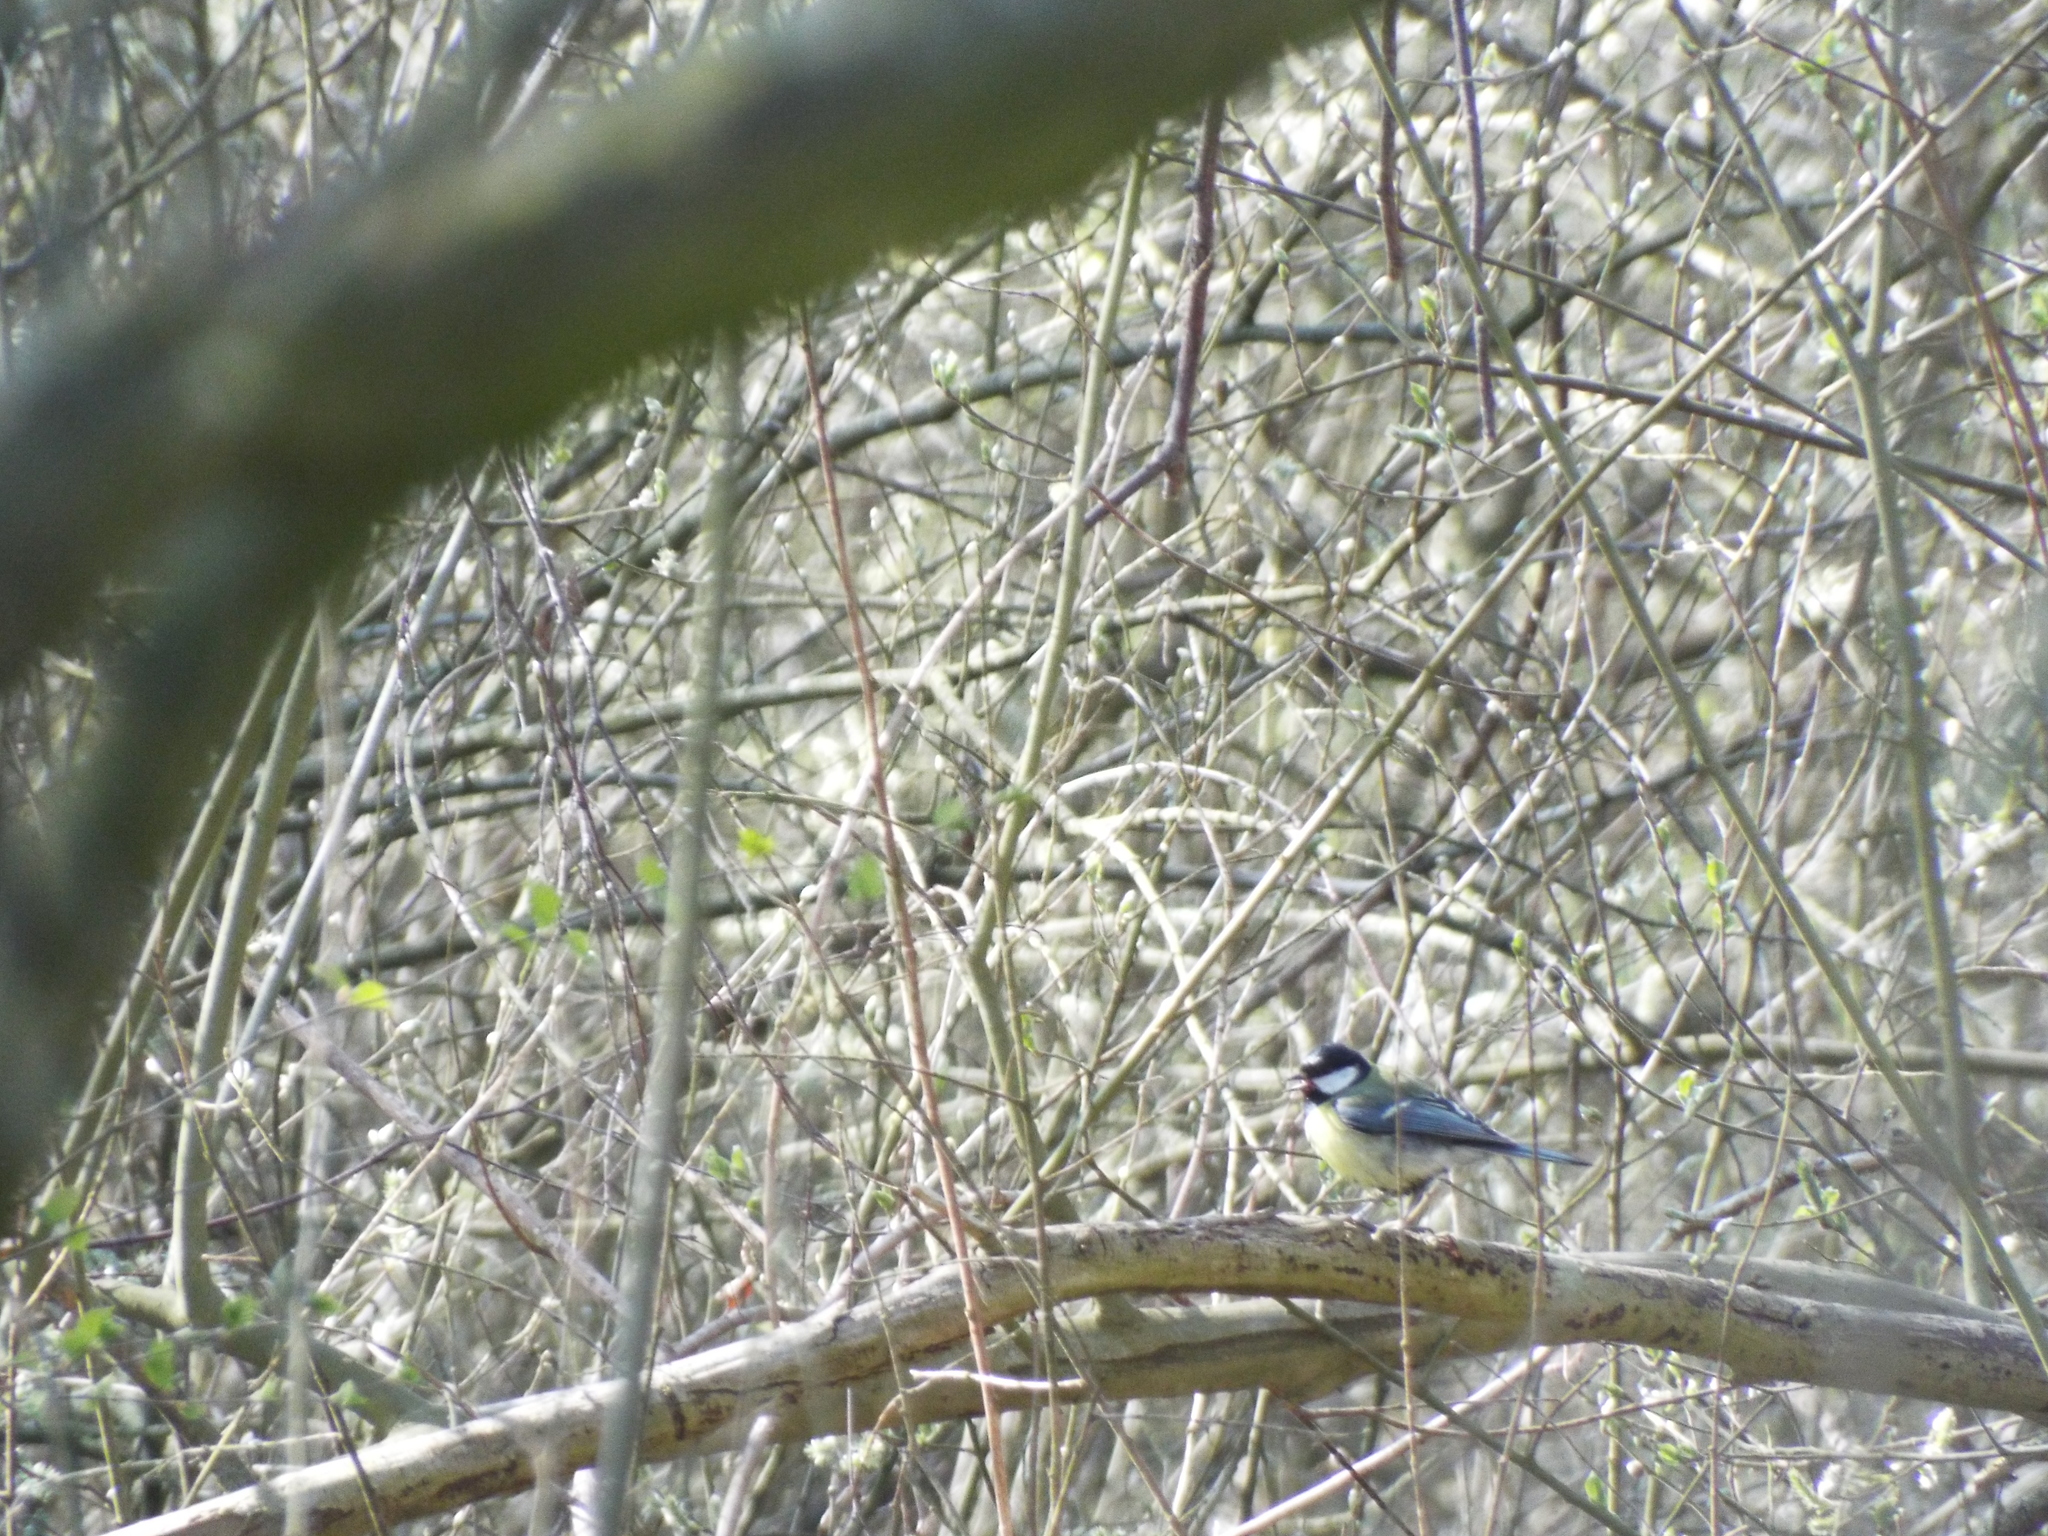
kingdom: Animalia
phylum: Chordata
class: Aves
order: Passeriformes
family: Paridae
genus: Parus
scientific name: Parus major
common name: Great tit
